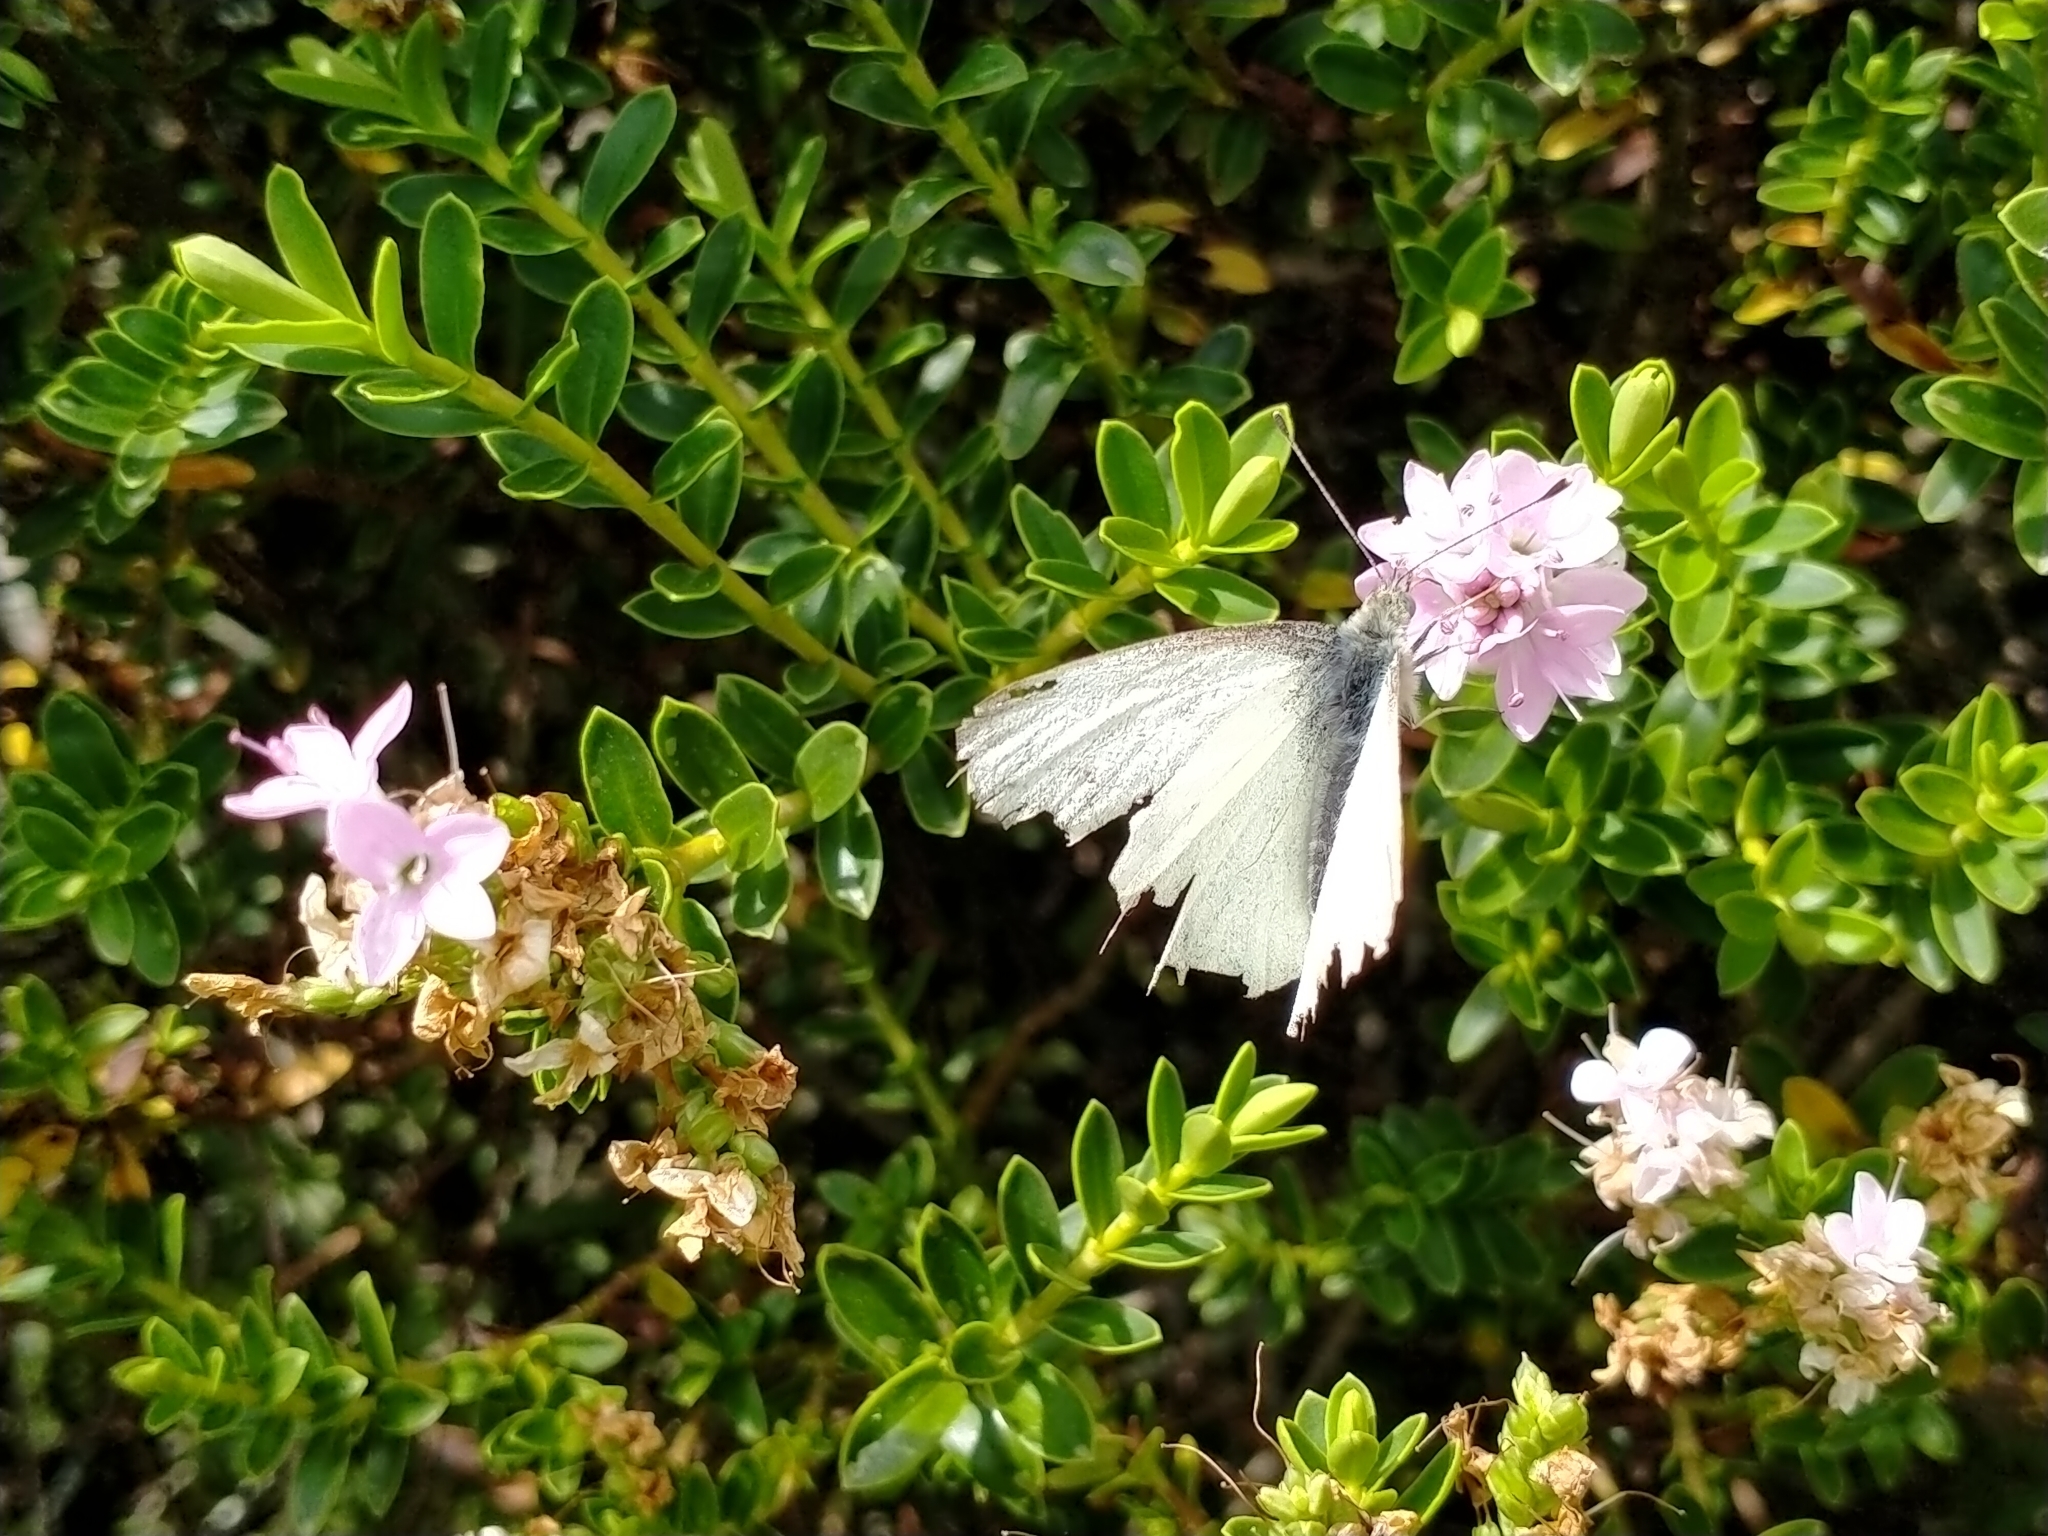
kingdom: Animalia
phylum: Arthropoda
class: Insecta
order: Lepidoptera
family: Pieridae
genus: Pieris
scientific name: Pieris rapae
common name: Small white
